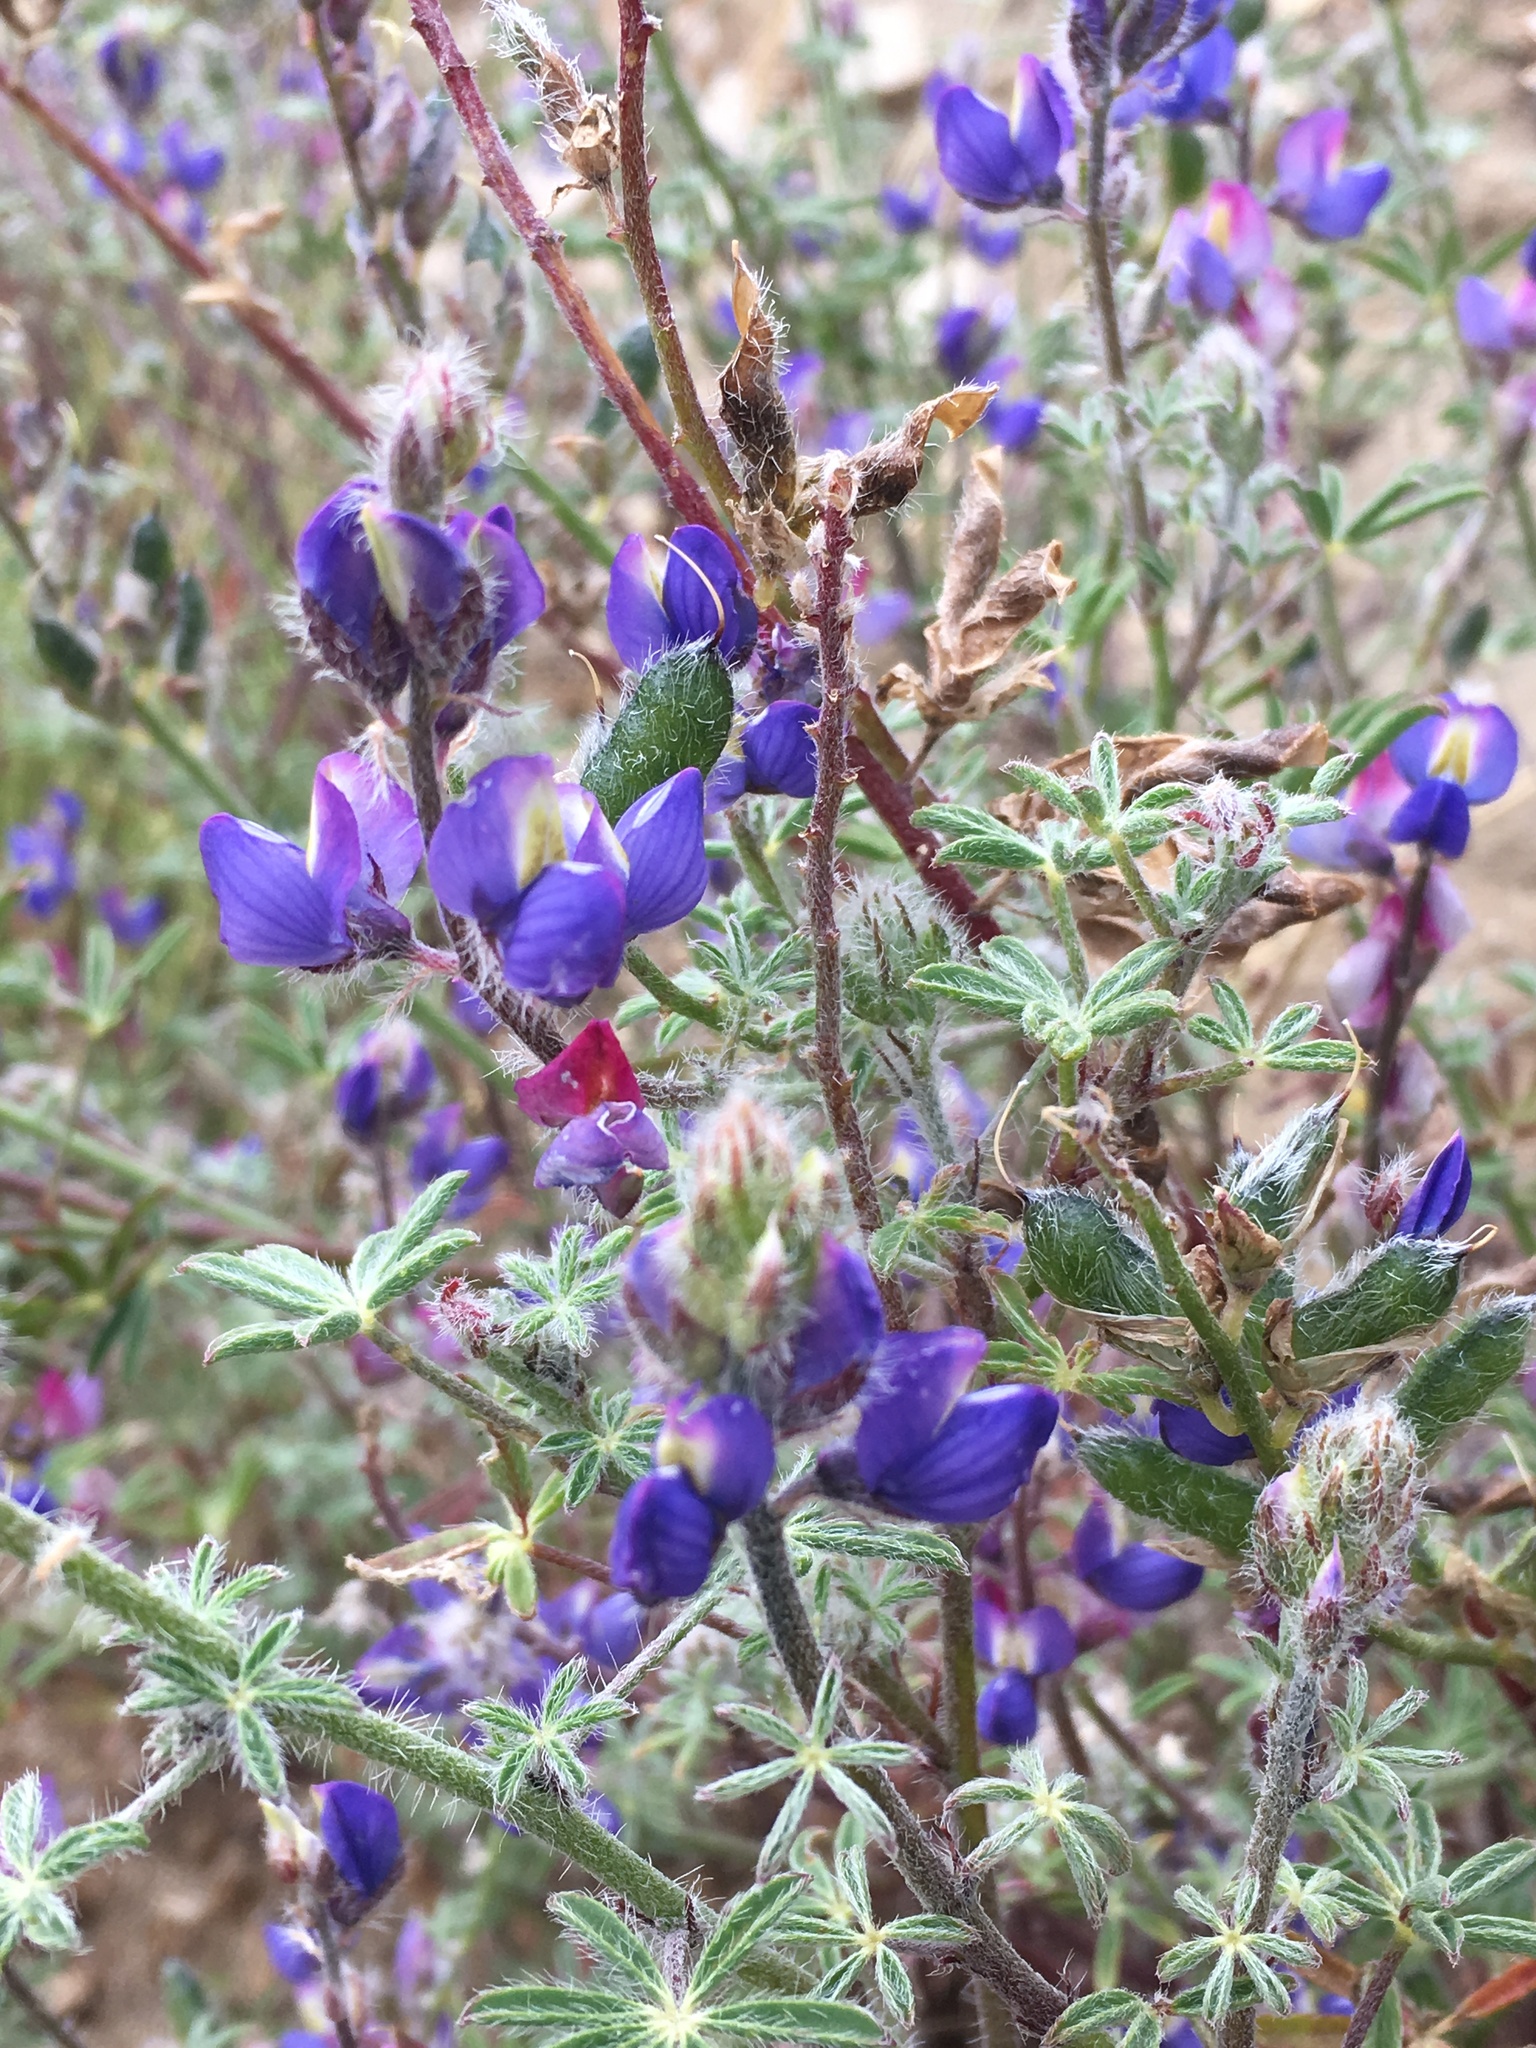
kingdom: Plantae
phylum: Tracheophyta
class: Magnoliopsida
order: Fabales
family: Fabaceae
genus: Lupinus
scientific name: Lupinus sparsiflorus
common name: Coulter's lupine
